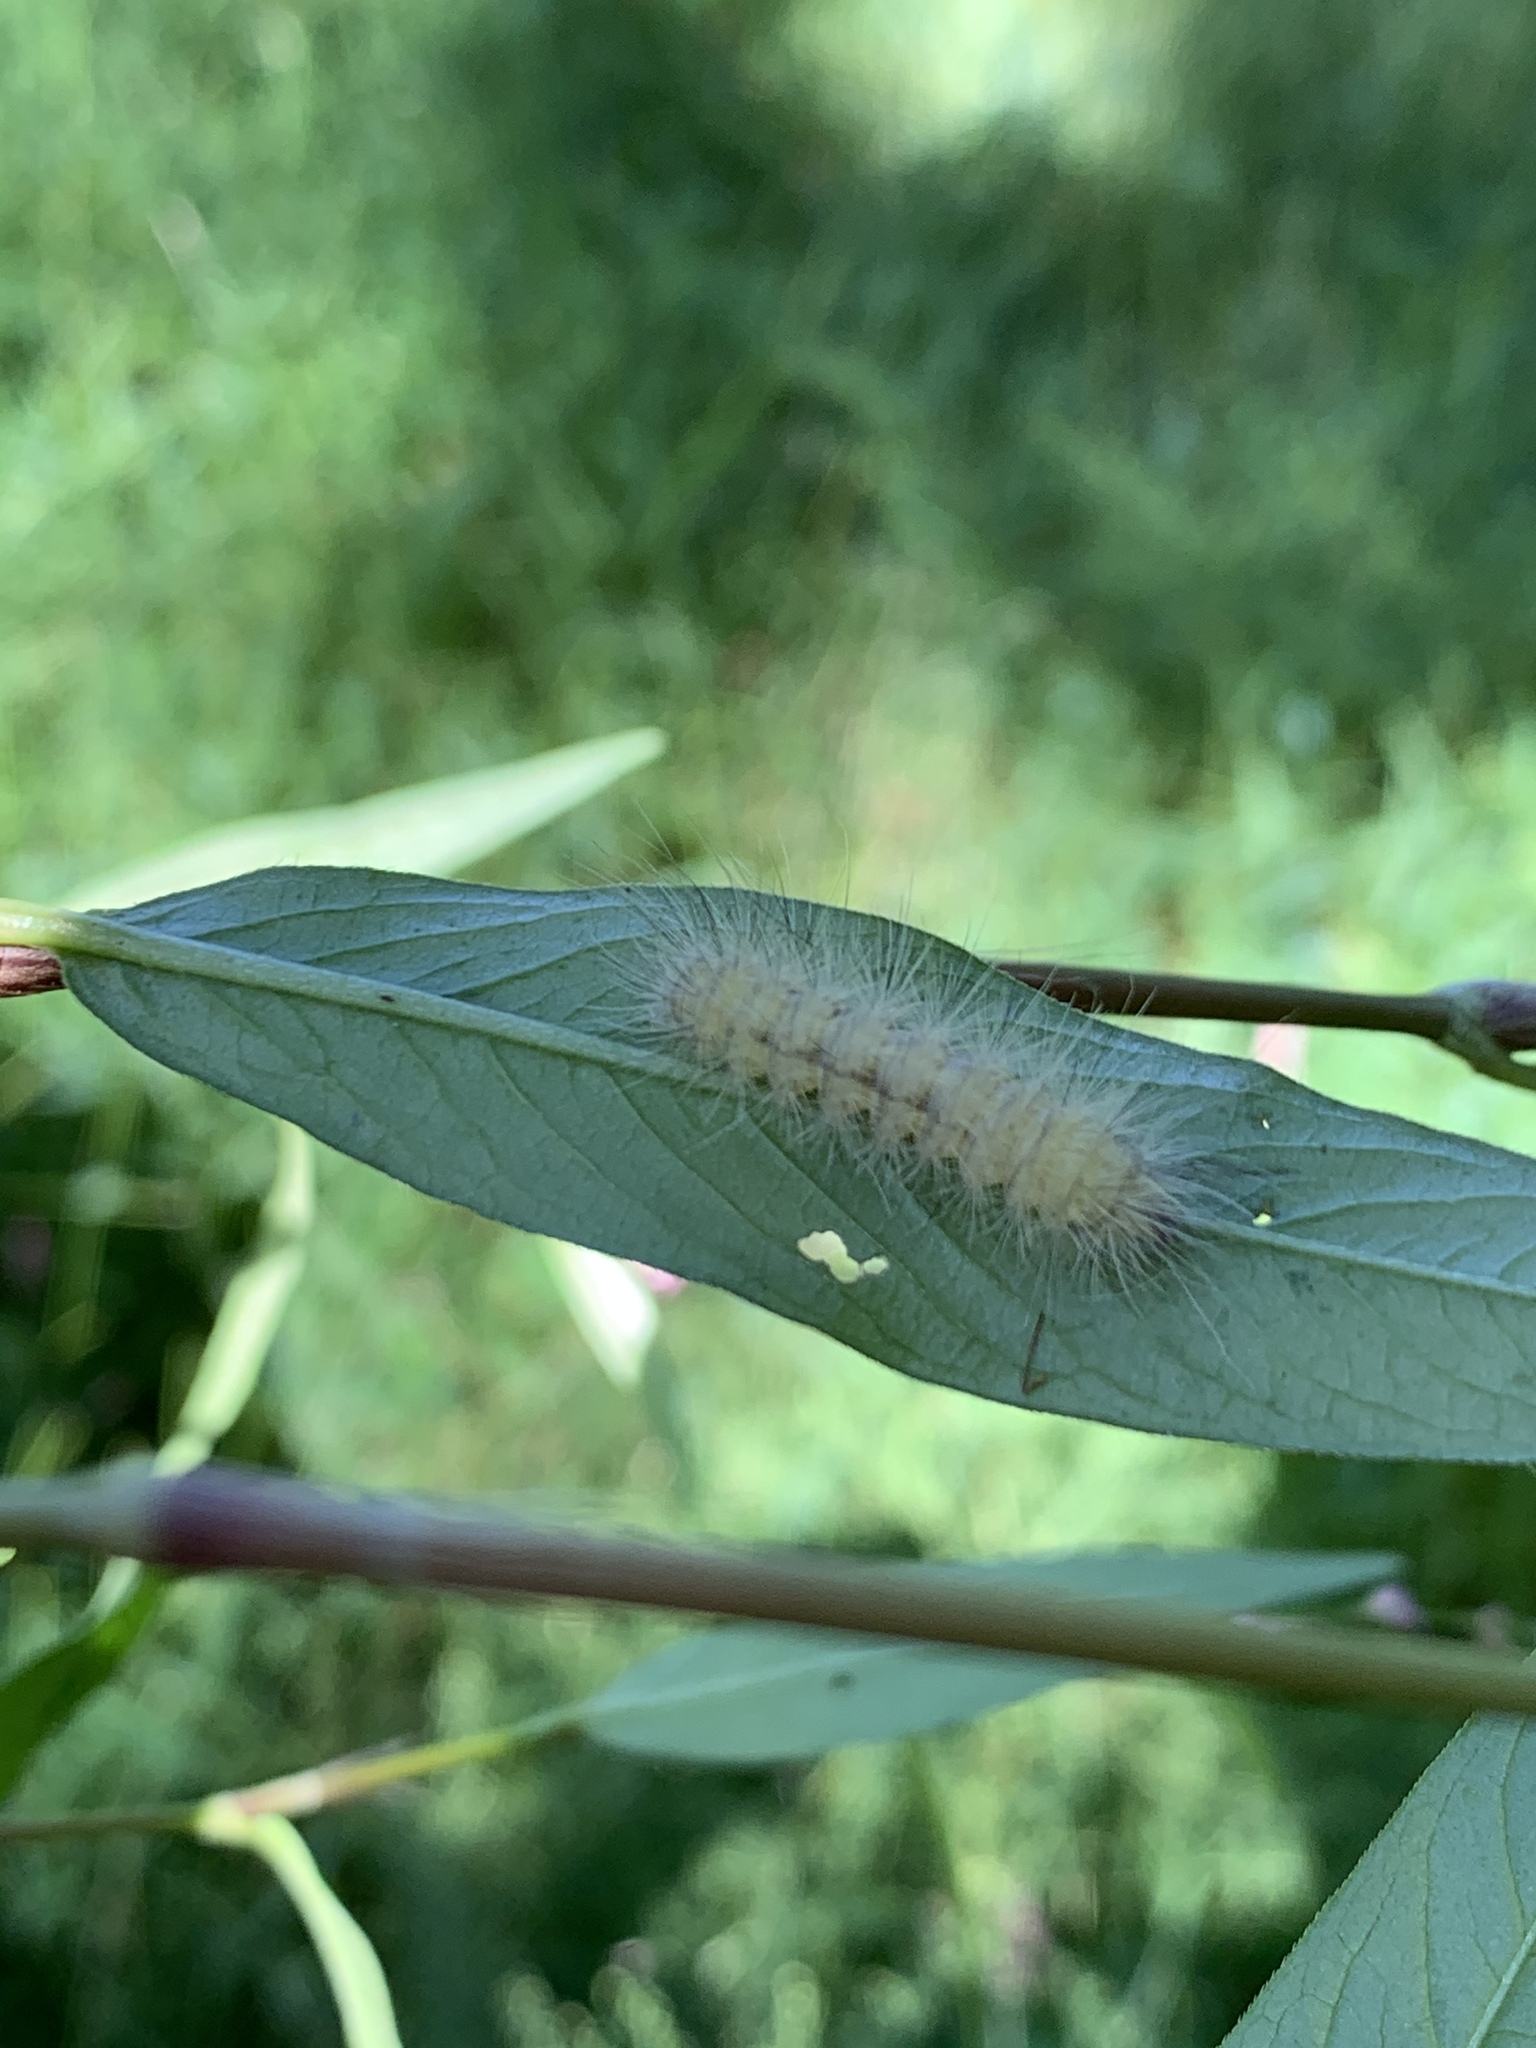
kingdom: Animalia
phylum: Arthropoda
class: Insecta
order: Lepidoptera
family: Erebidae
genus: Spilosoma
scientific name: Spilosoma virginica
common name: Virginia tiger moth
